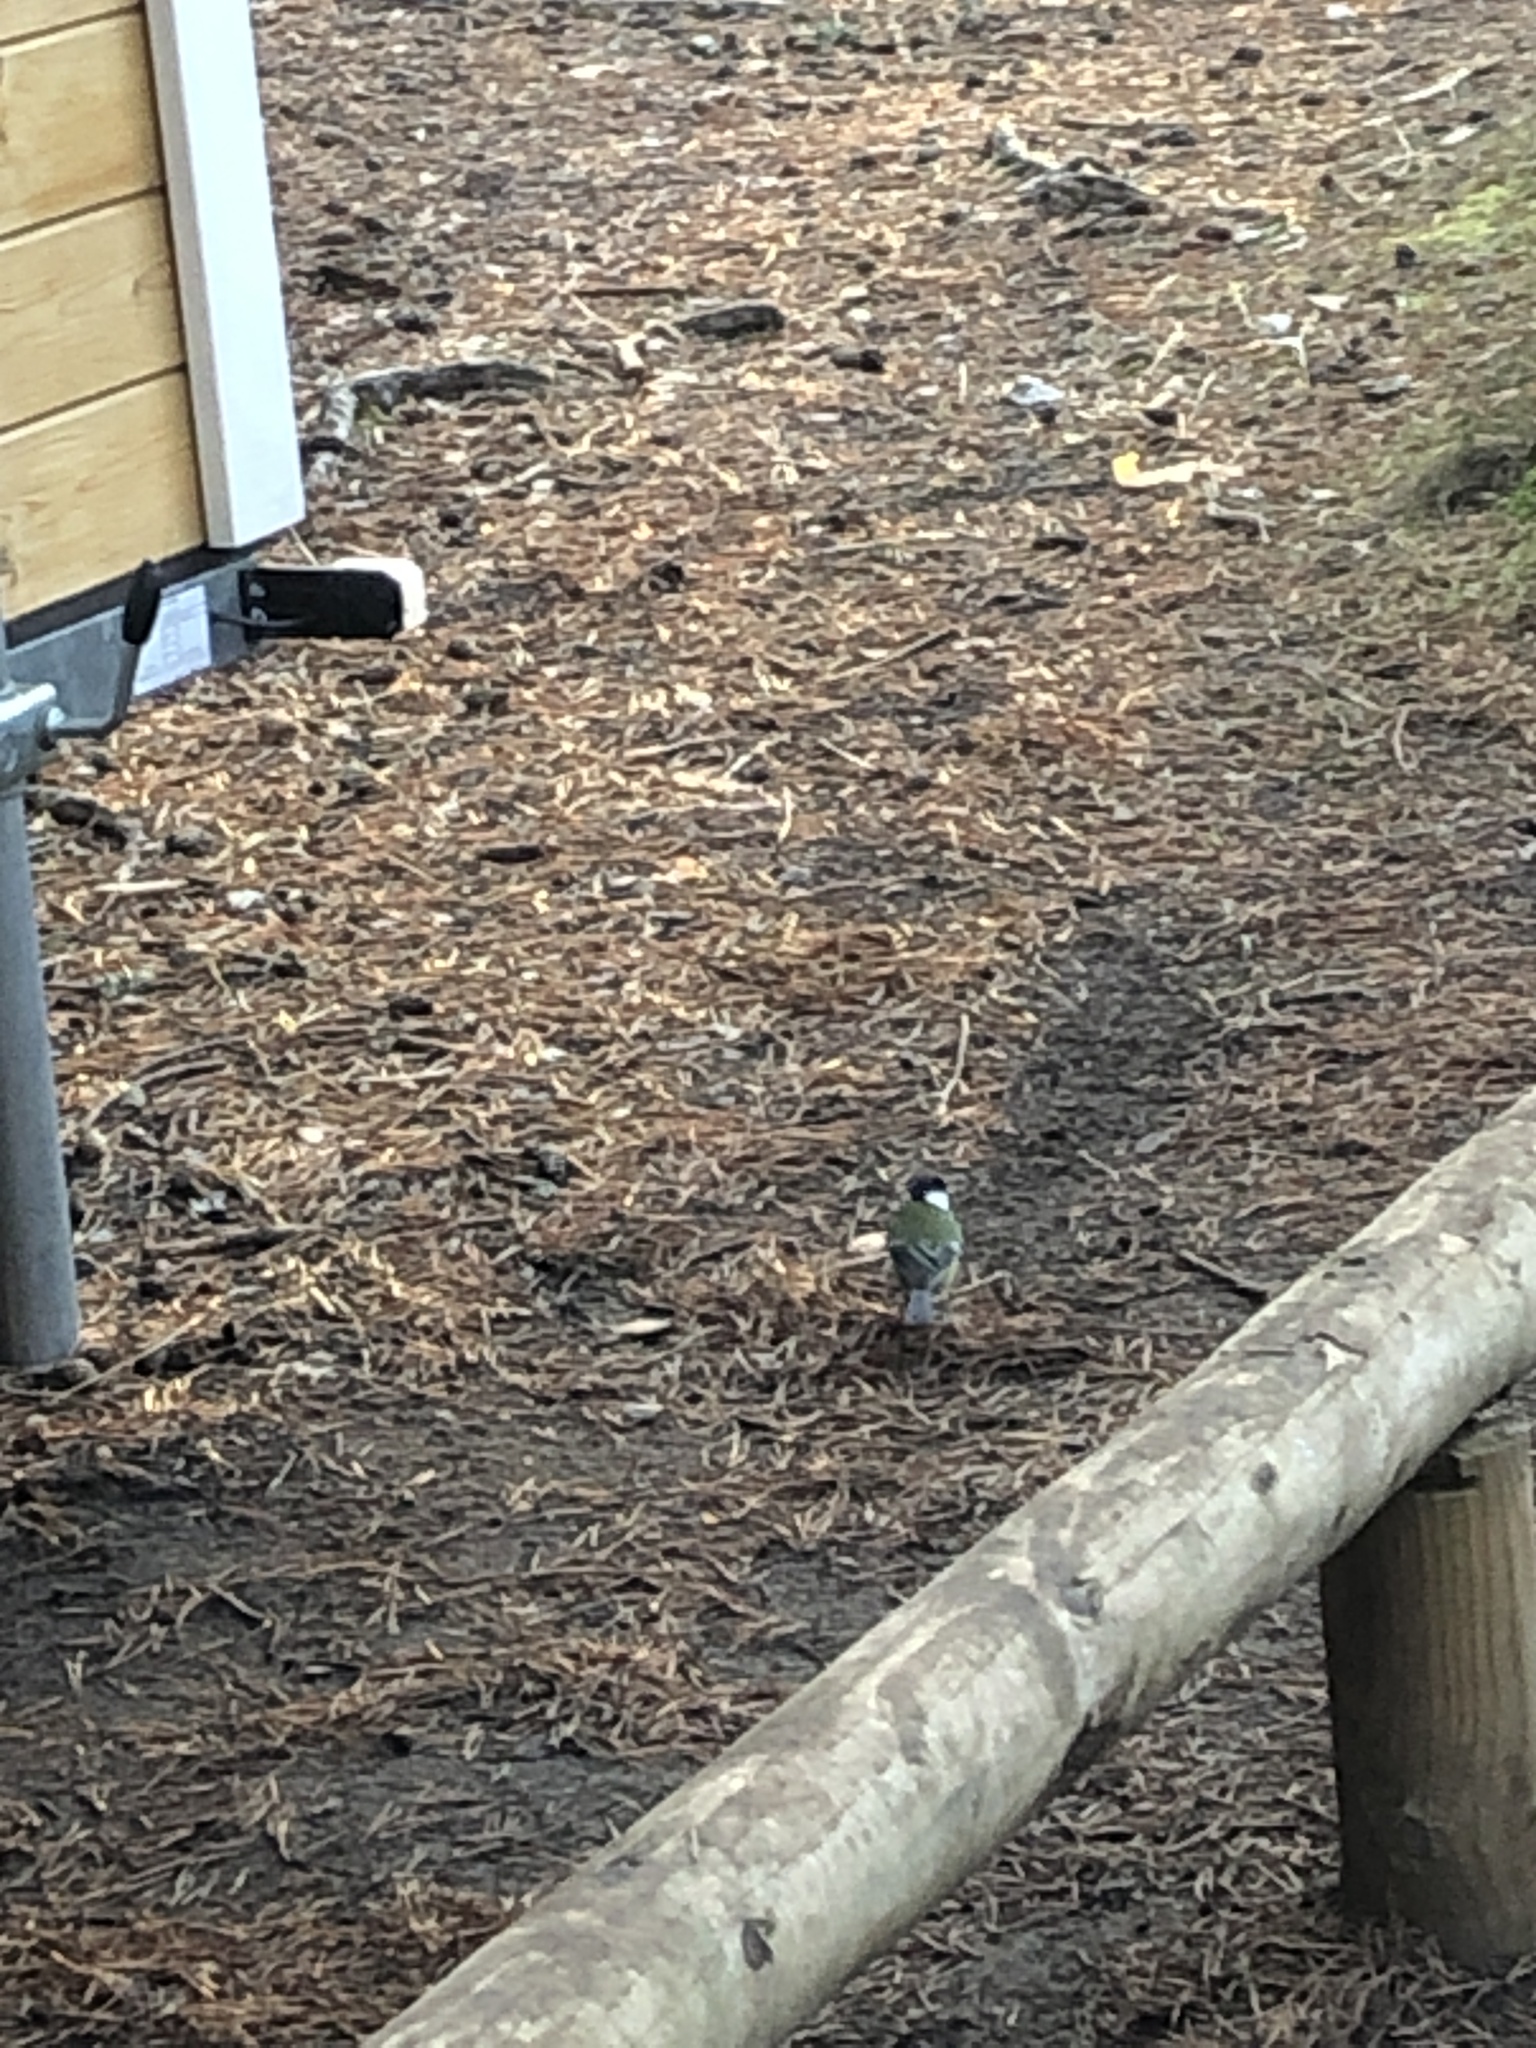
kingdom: Animalia
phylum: Chordata
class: Aves
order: Passeriformes
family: Paridae
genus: Parus
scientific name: Parus major
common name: Great tit
